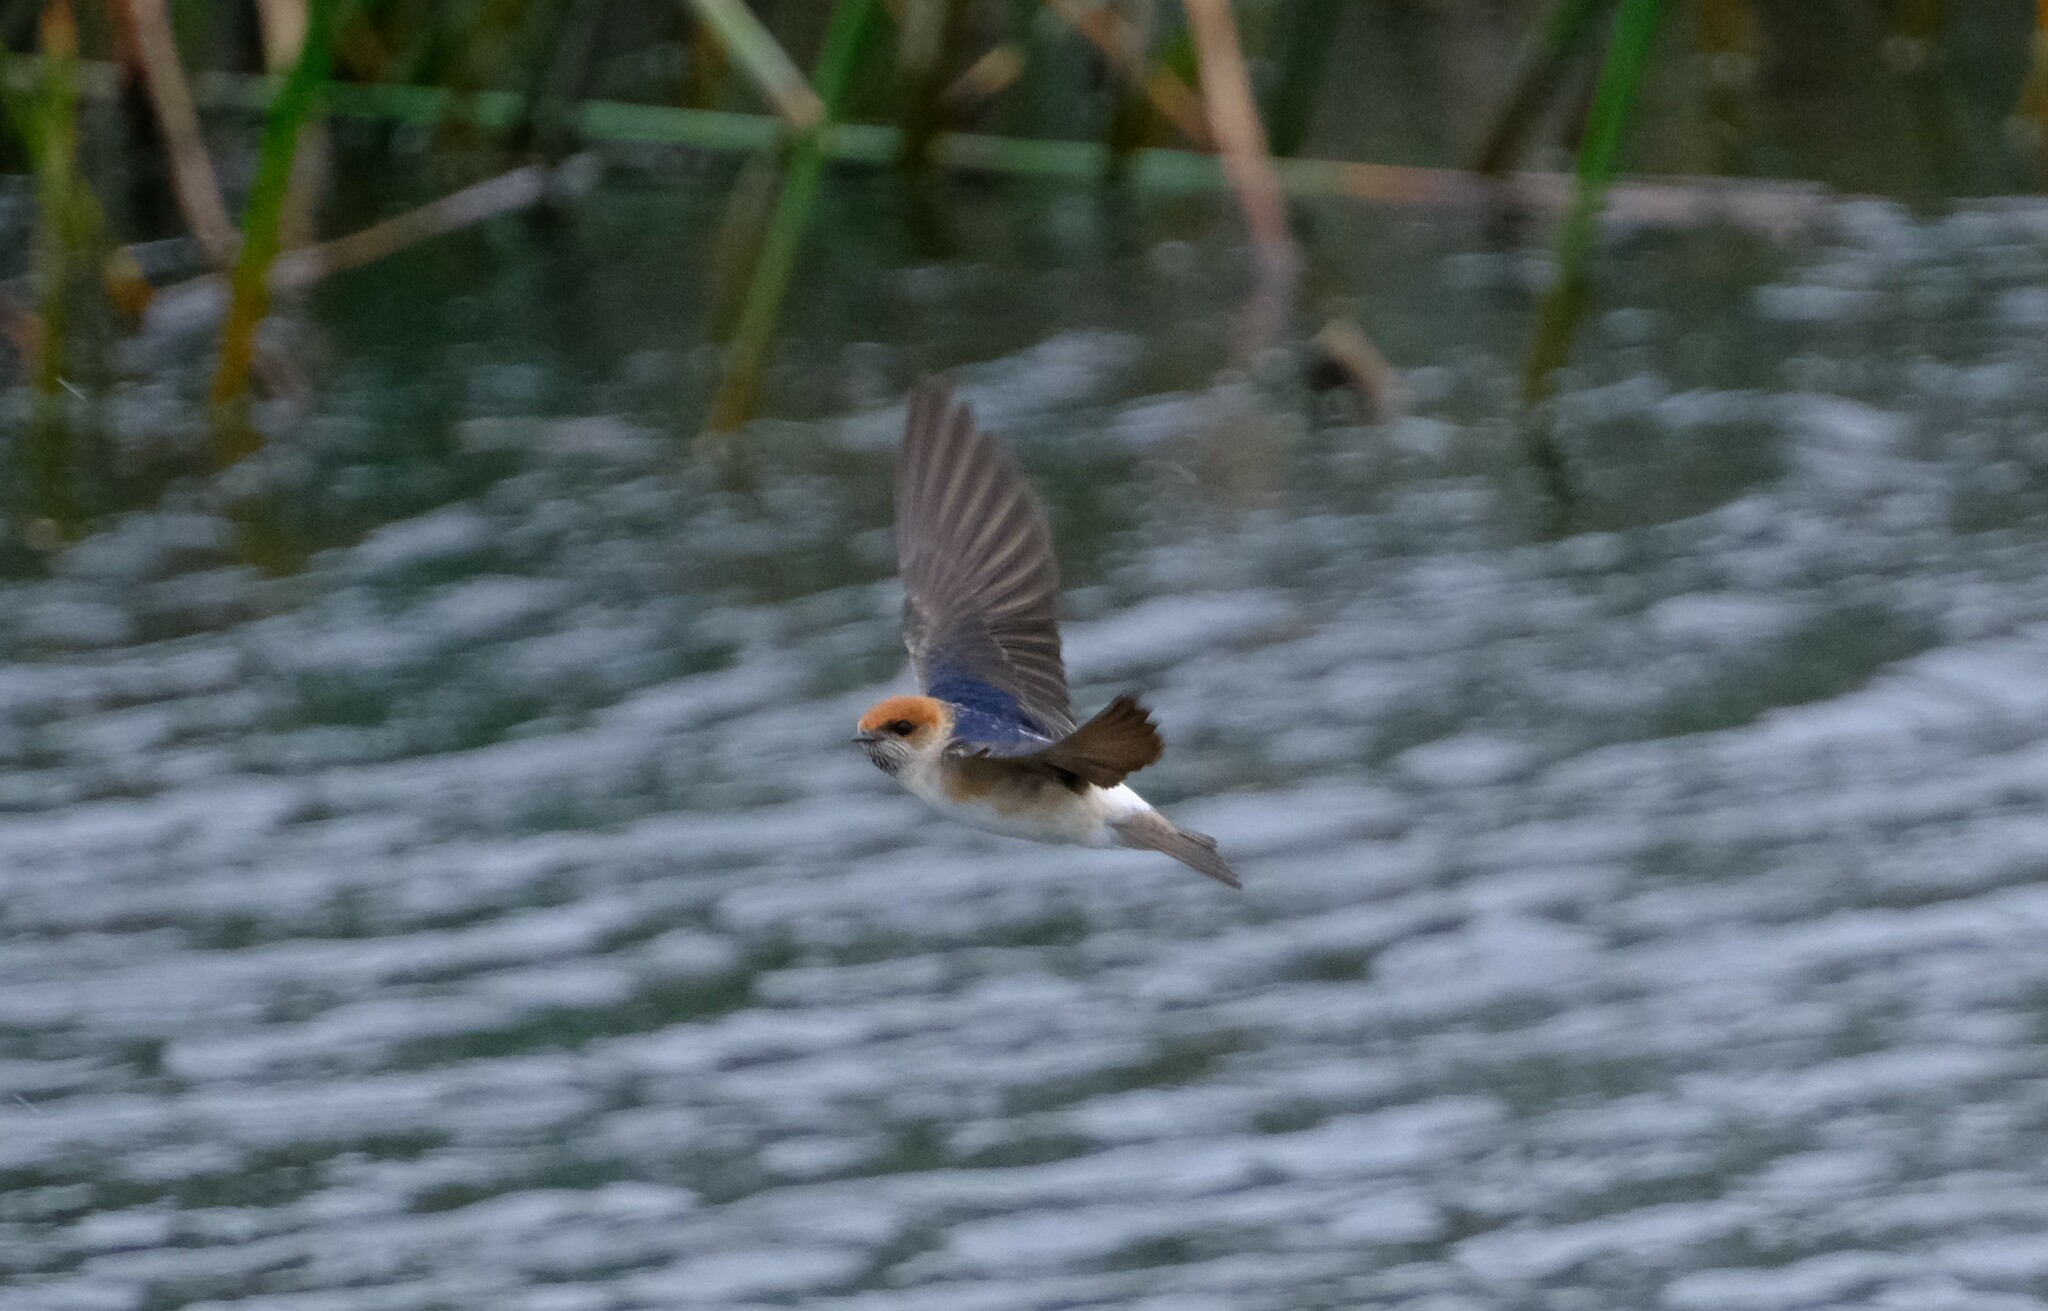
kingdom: Animalia
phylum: Chordata
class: Aves
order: Passeriformes
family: Hirundinidae
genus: Petrochelidon
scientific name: Petrochelidon ariel
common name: Fairy martin
